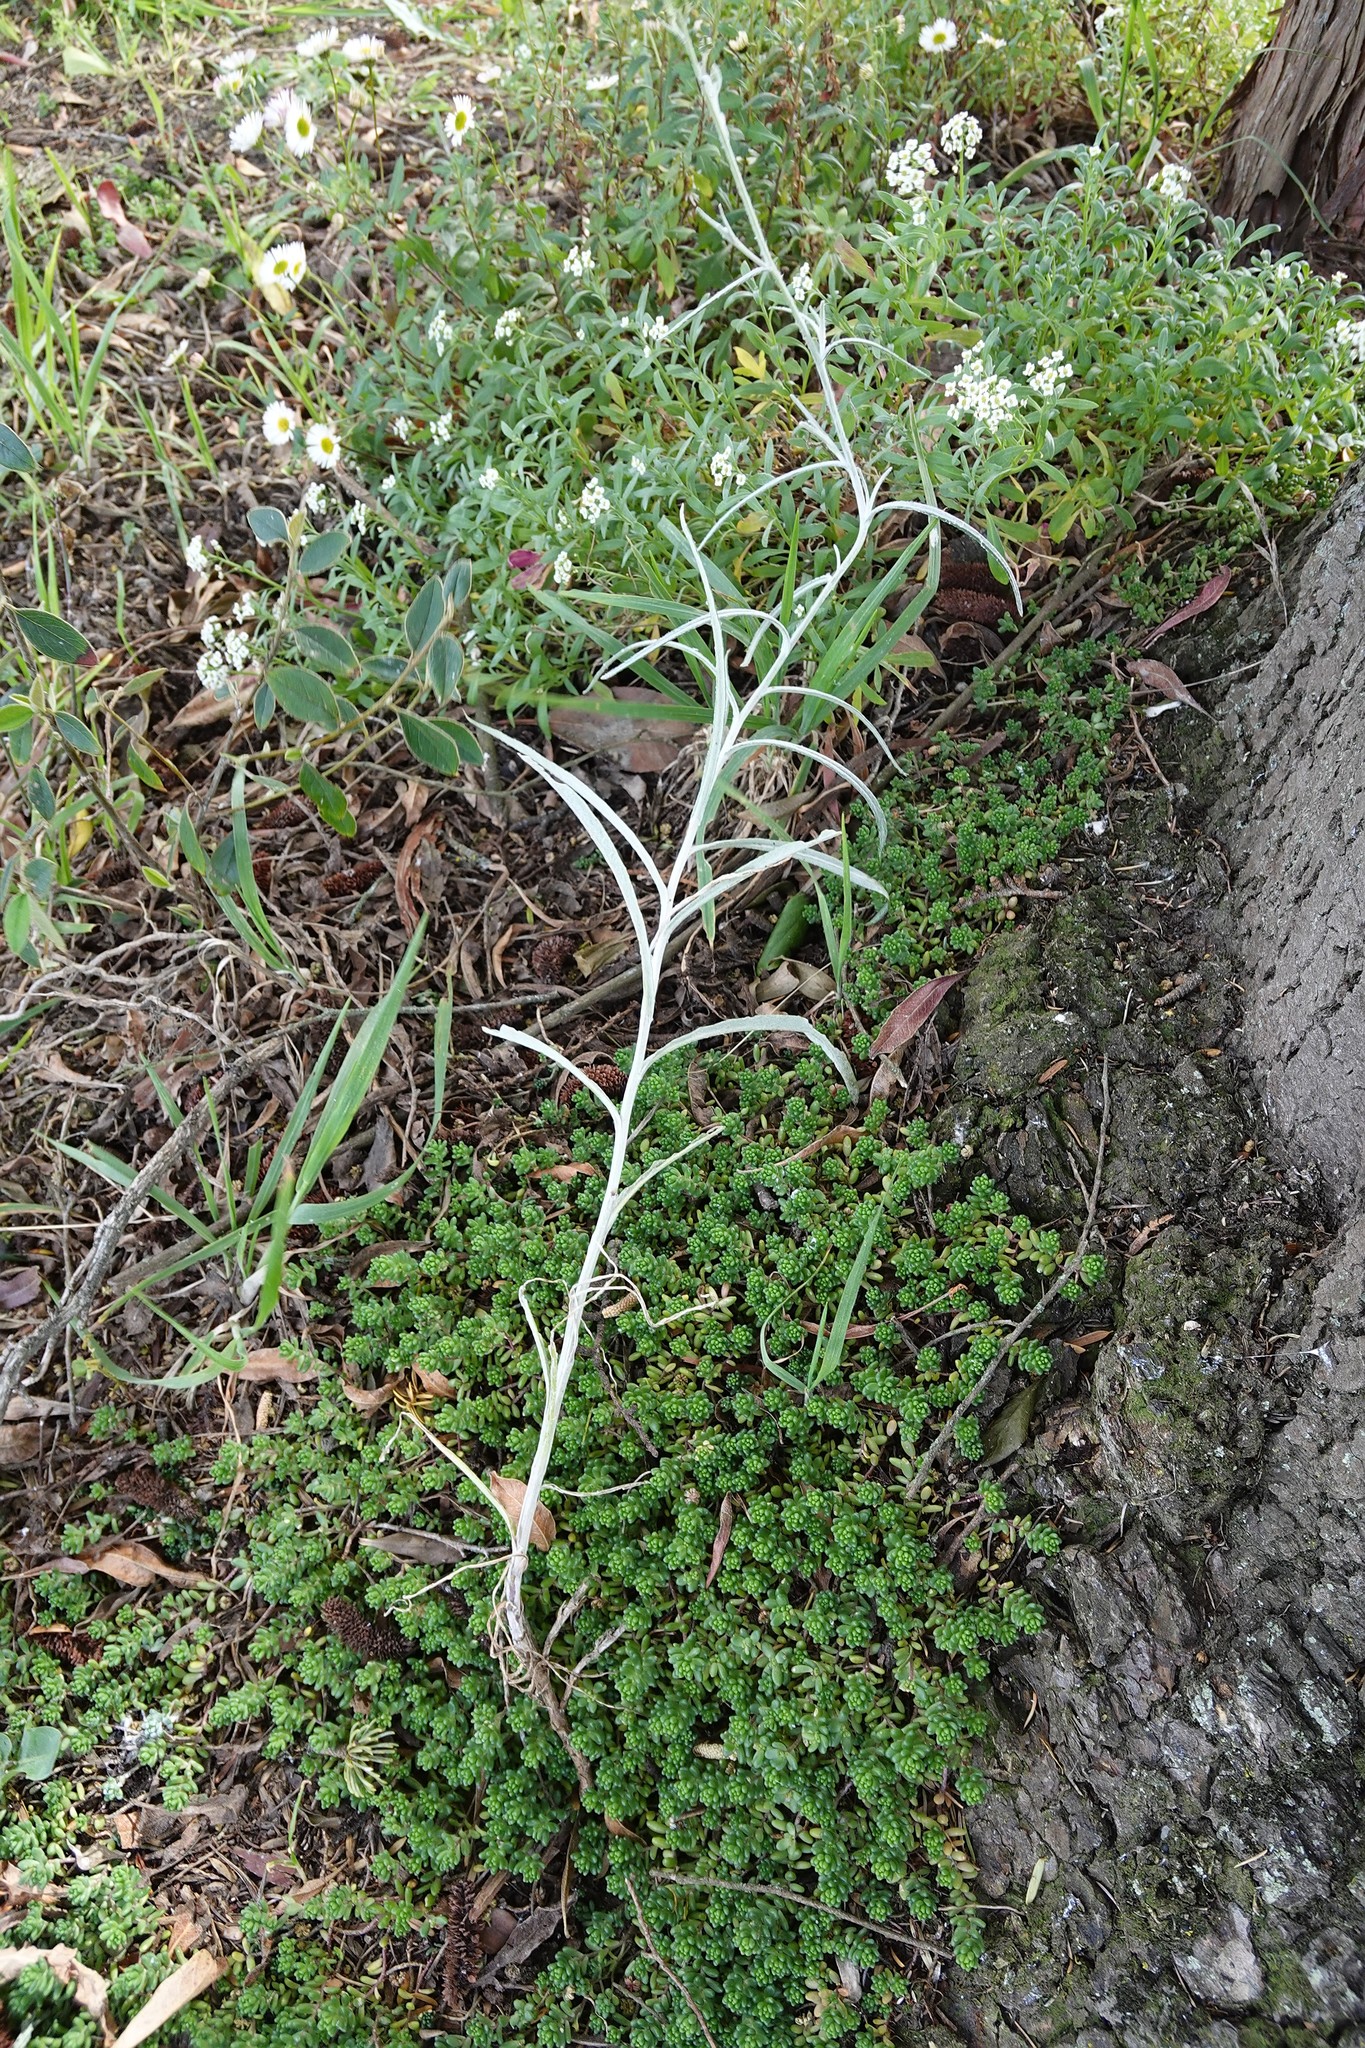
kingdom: Plantae
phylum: Tracheophyta
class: Magnoliopsida
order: Asterales
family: Asteraceae
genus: Senecio
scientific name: Senecio quadridentatus
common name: Cotton fireweed
